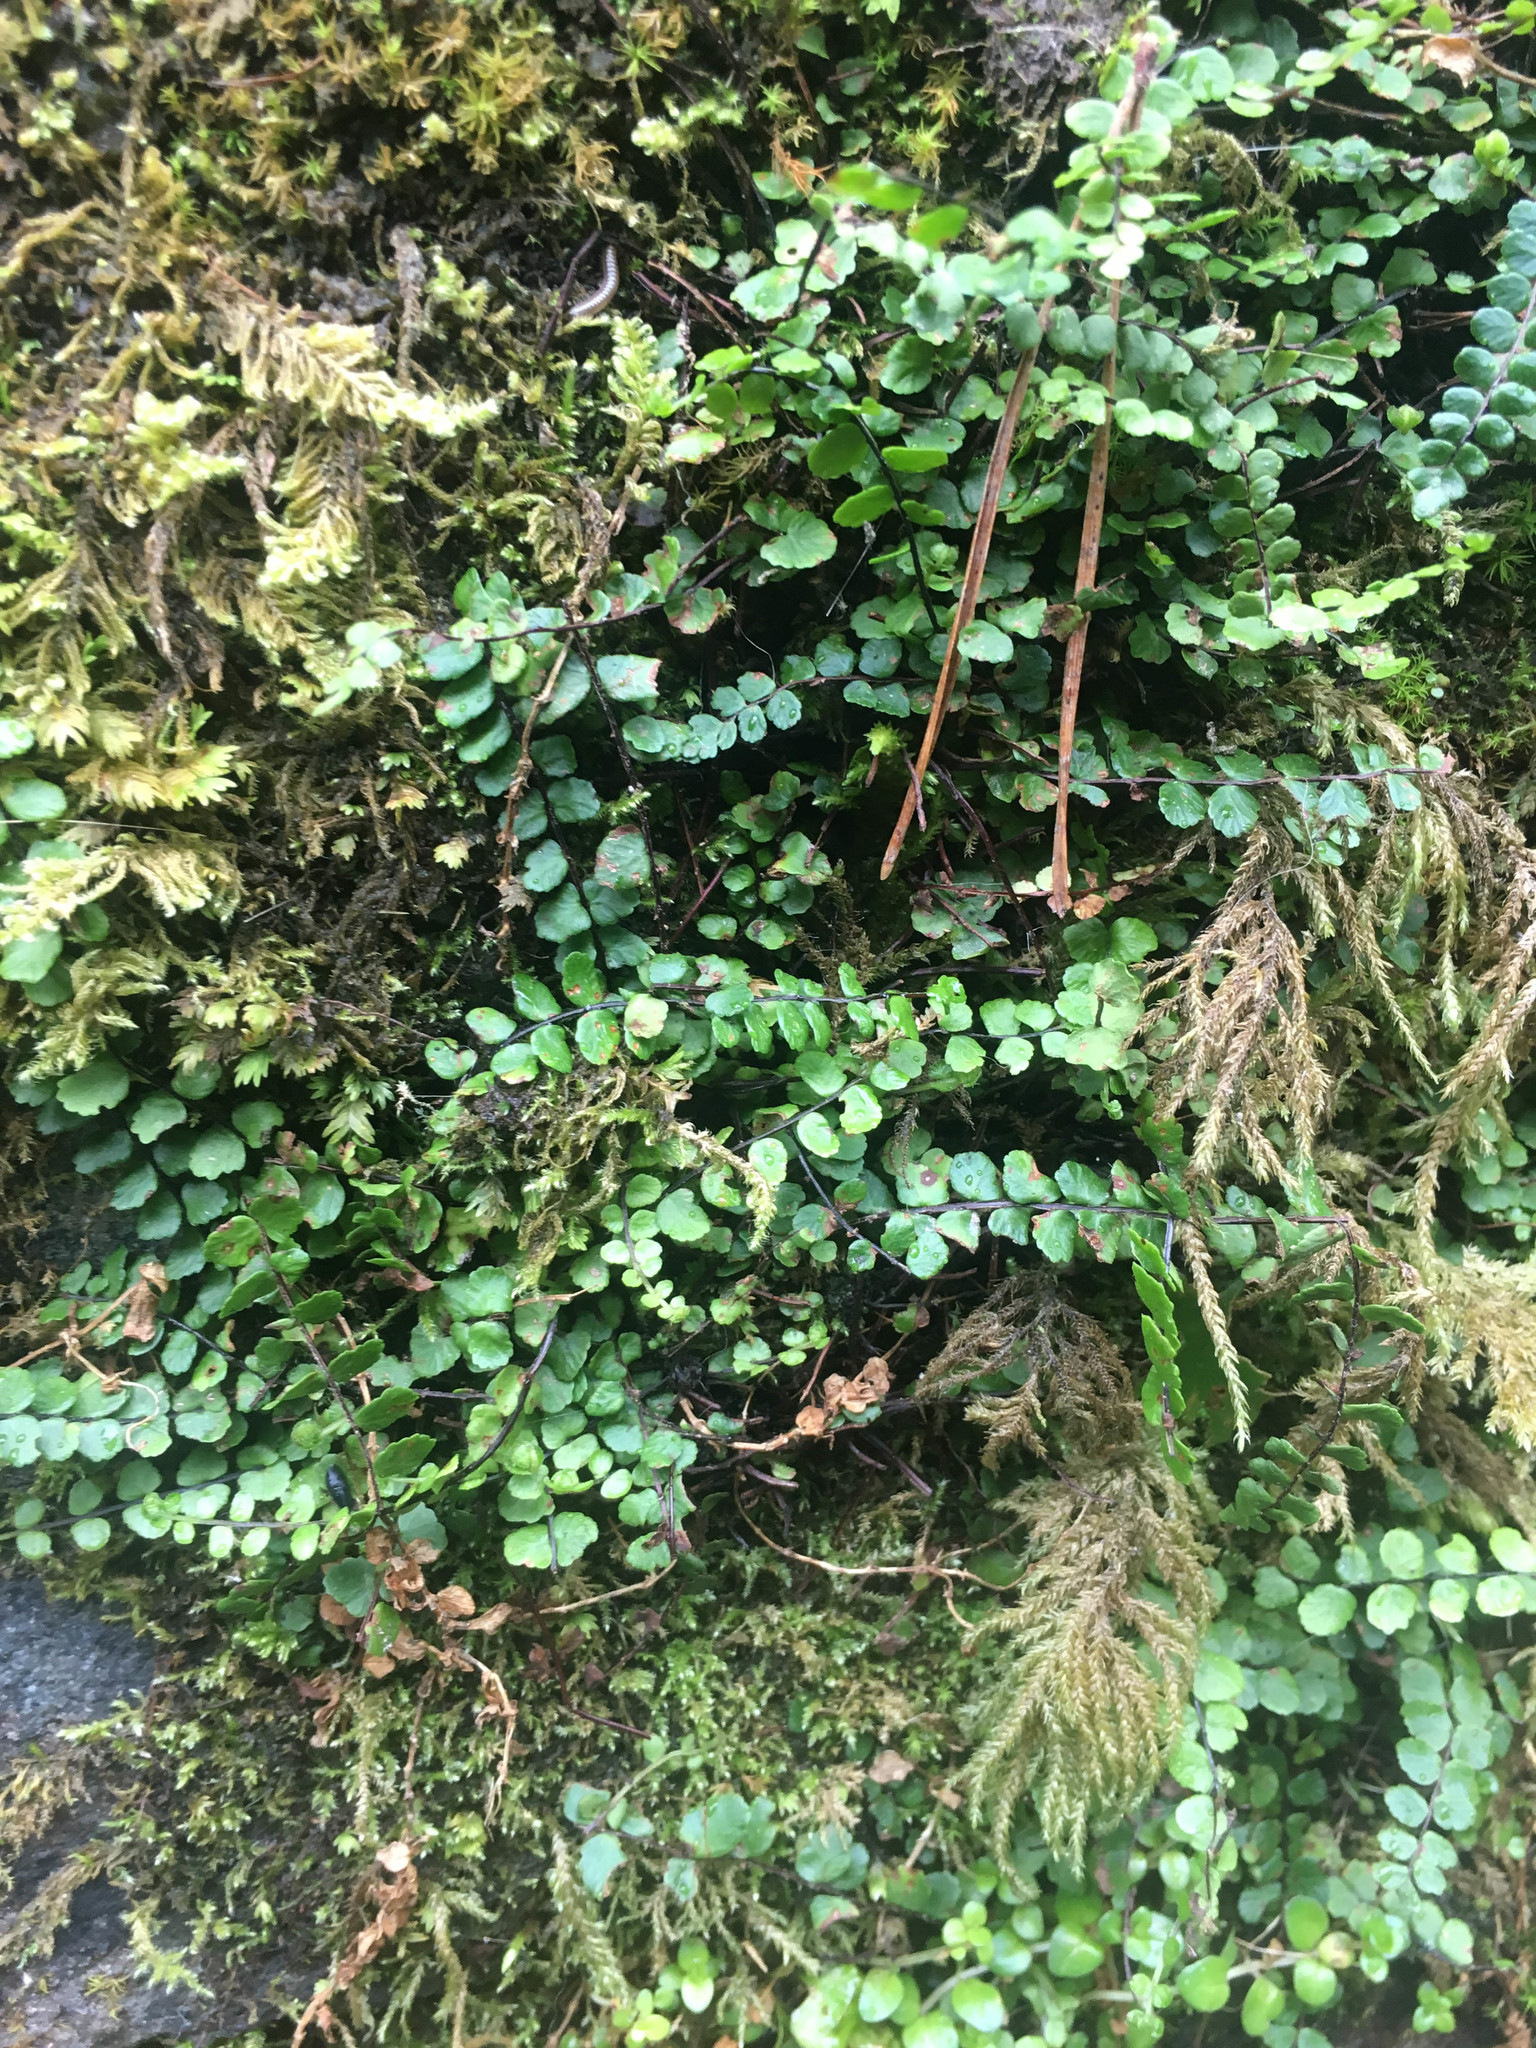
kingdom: Plantae
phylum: Tracheophyta
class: Polypodiopsida
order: Polypodiales
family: Aspleniaceae
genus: Asplenium
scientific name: Asplenium trichomanes
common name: Maidenhair spleenwort
